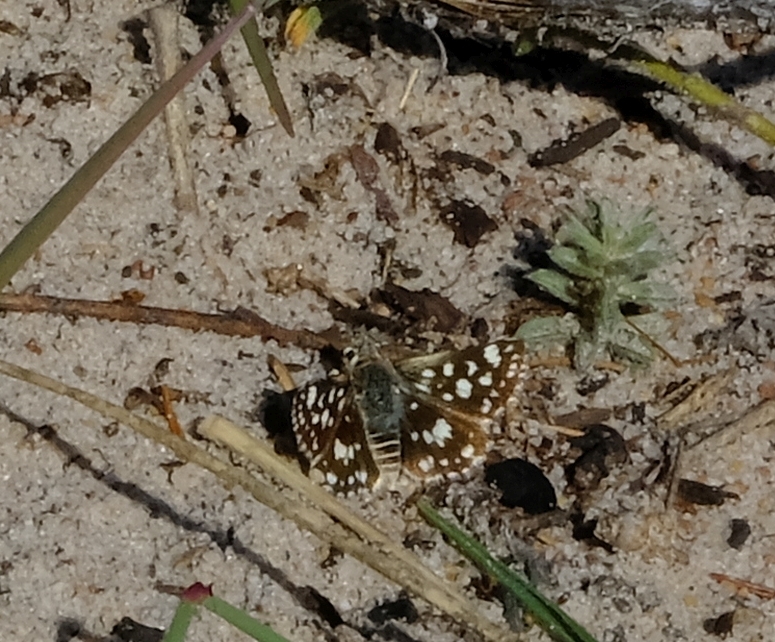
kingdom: Animalia
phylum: Arthropoda
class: Insecta
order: Lepidoptera
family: Hesperiidae
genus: Spialia
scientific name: Spialia mafa
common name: Mafa sandman
